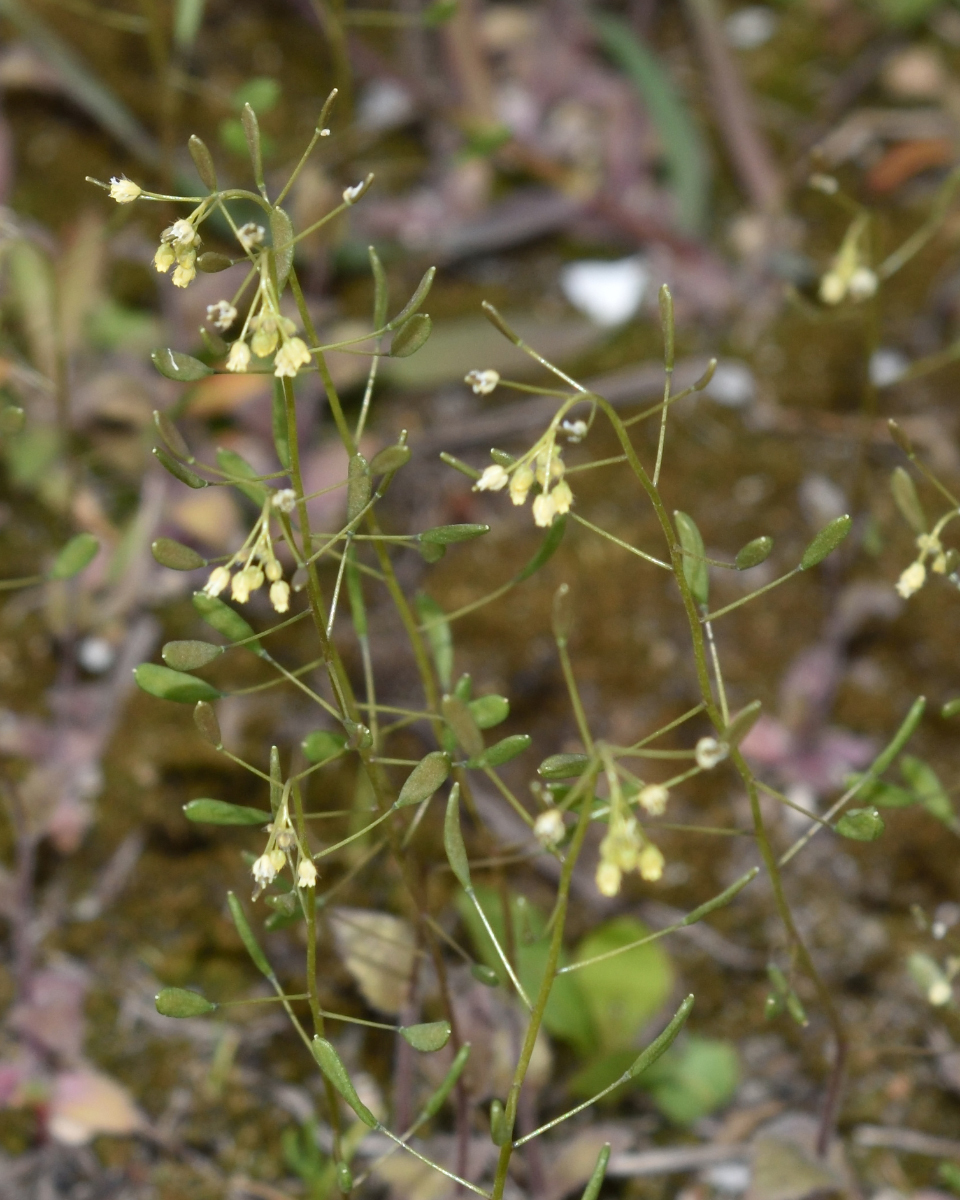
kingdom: Plantae
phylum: Tracheophyta
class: Magnoliopsida
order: Brassicales
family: Brassicaceae
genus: Draba
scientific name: Draba nemorosa
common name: Wood whitlow-grass
